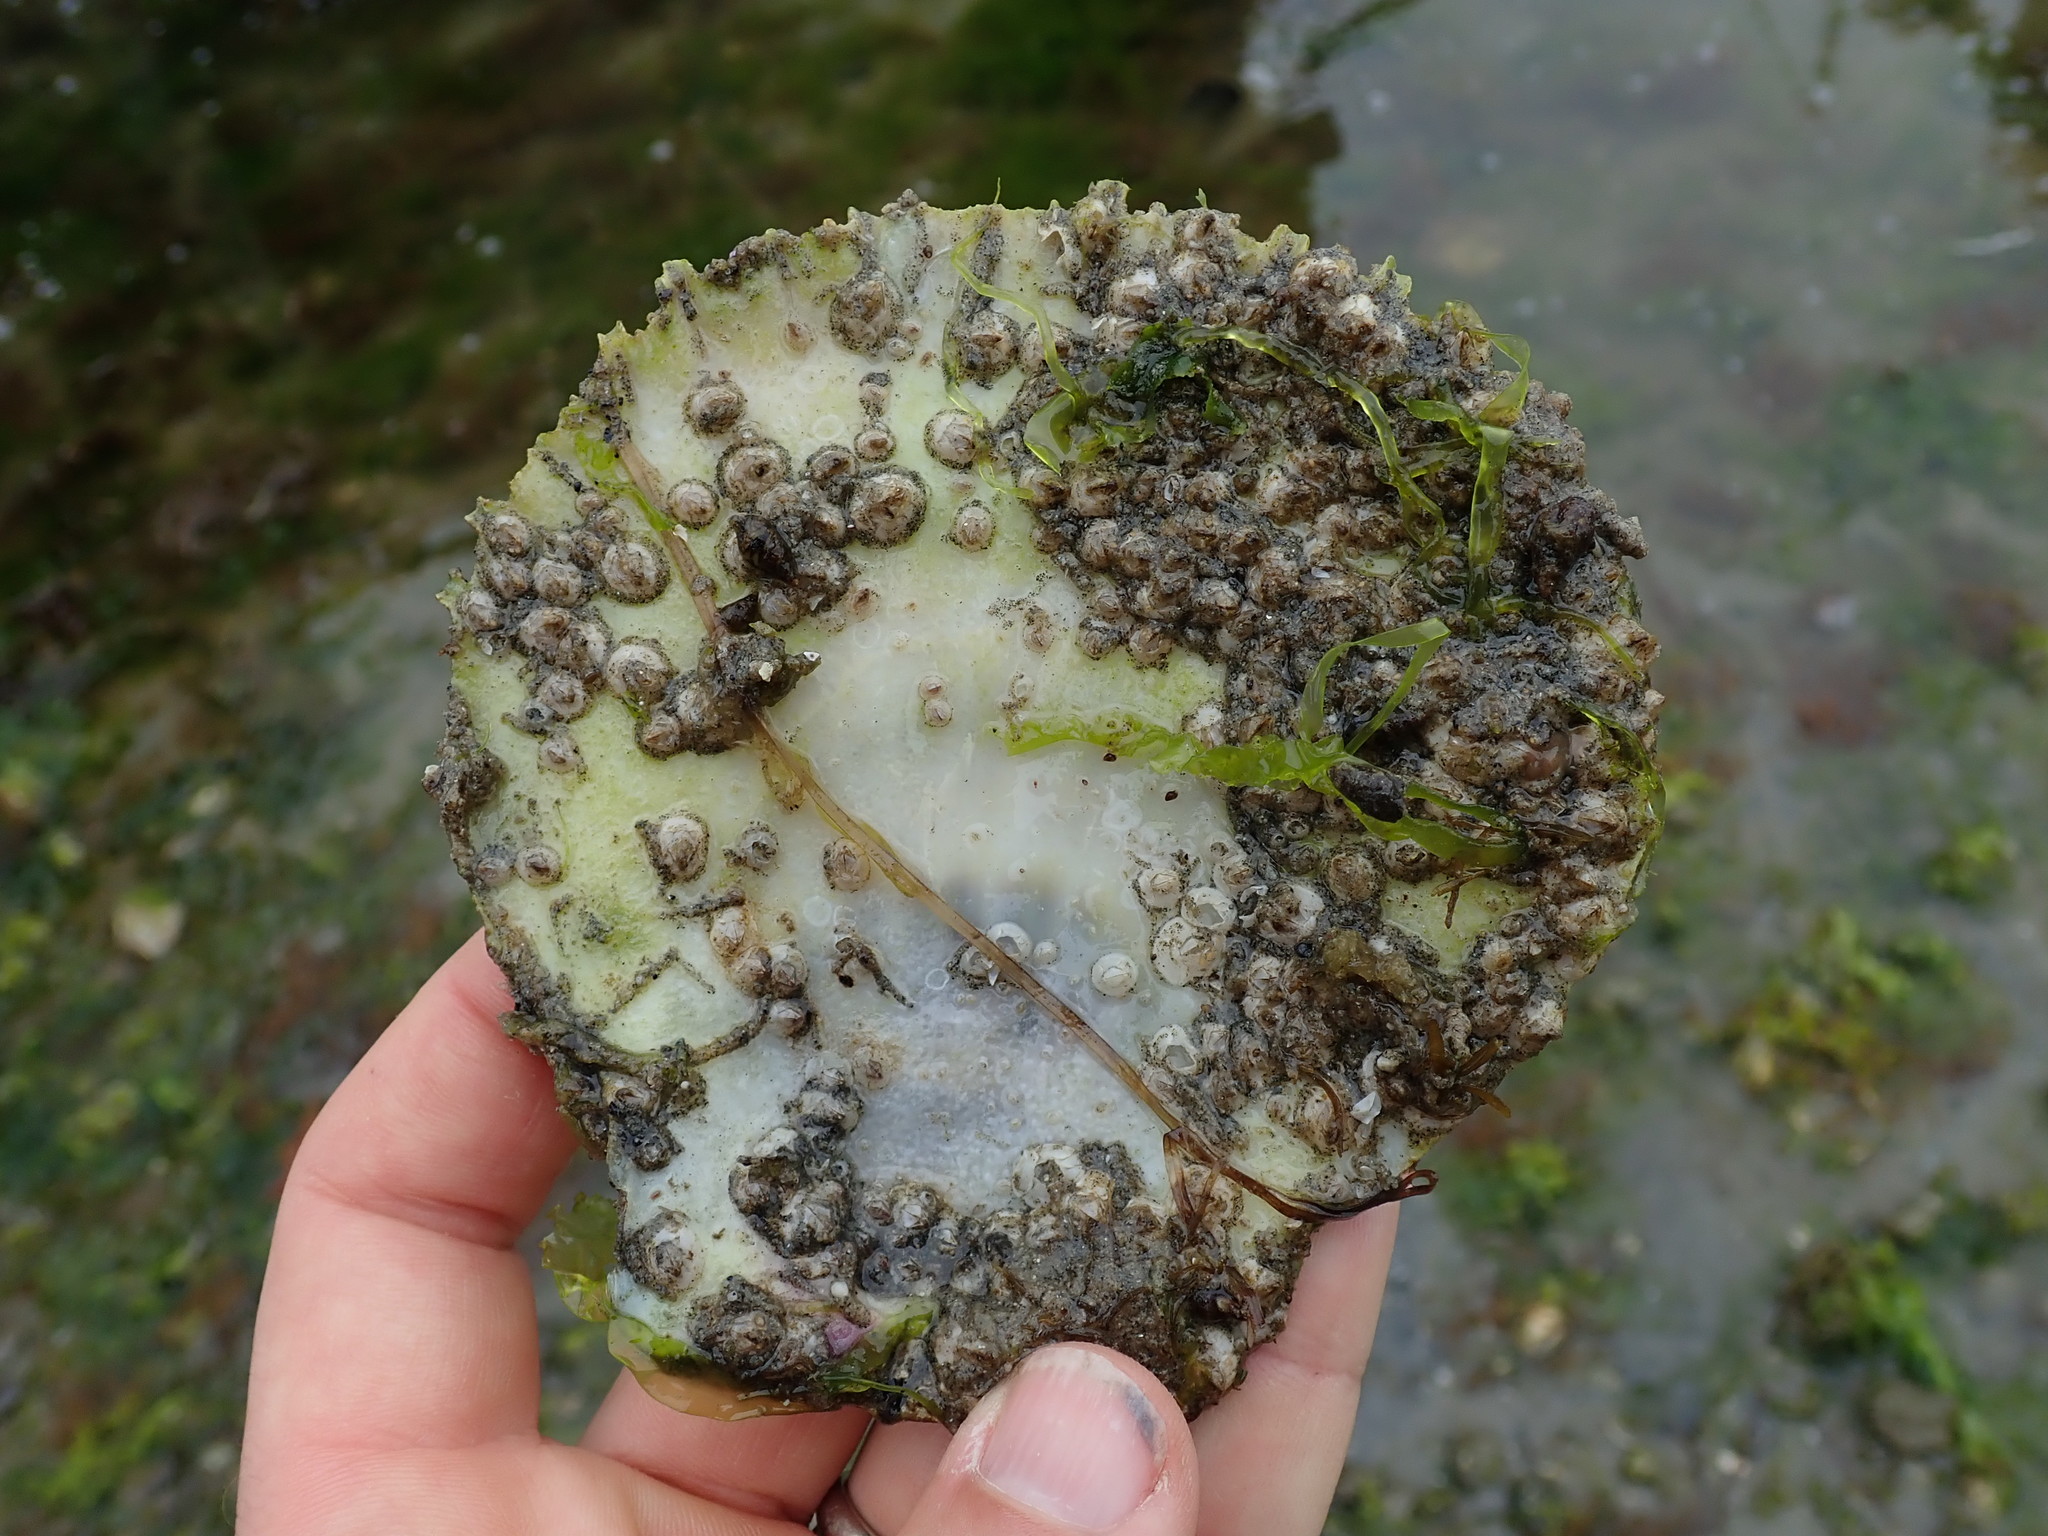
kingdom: Animalia
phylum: Mollusca
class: Bivalvia
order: Pectinida
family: Pectinidae
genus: Crassadoma
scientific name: Crassadoma gigantea
